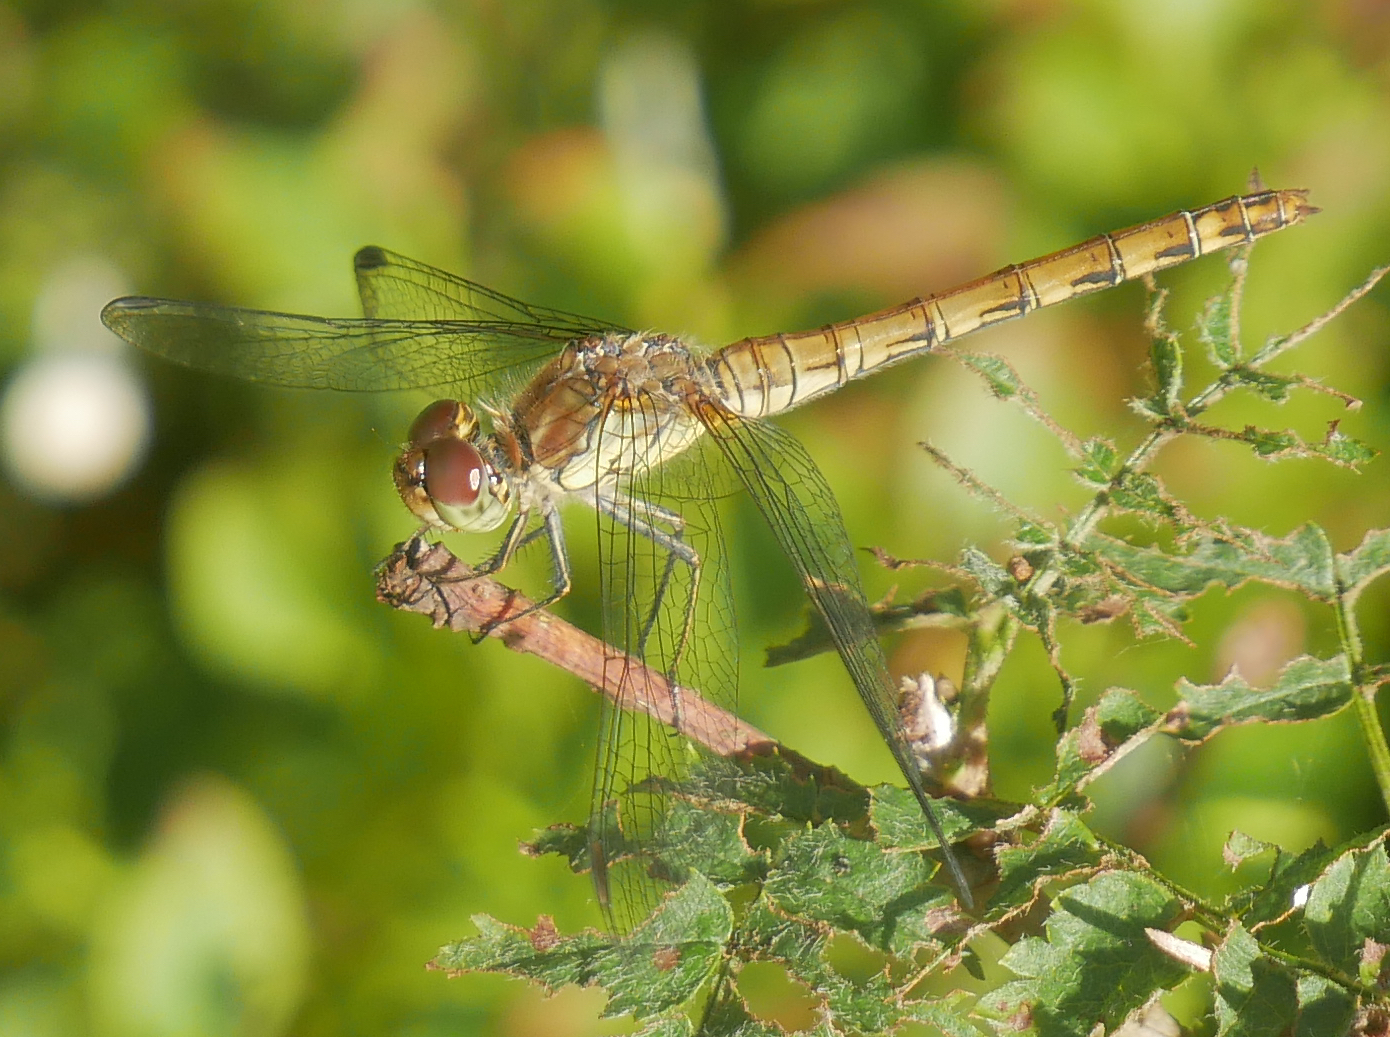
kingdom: Animalia
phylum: Arthropoda
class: Insecta
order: Odonata
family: Libellulidae
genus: Sympetrum
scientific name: Sympetrum striolatum
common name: Common darter
